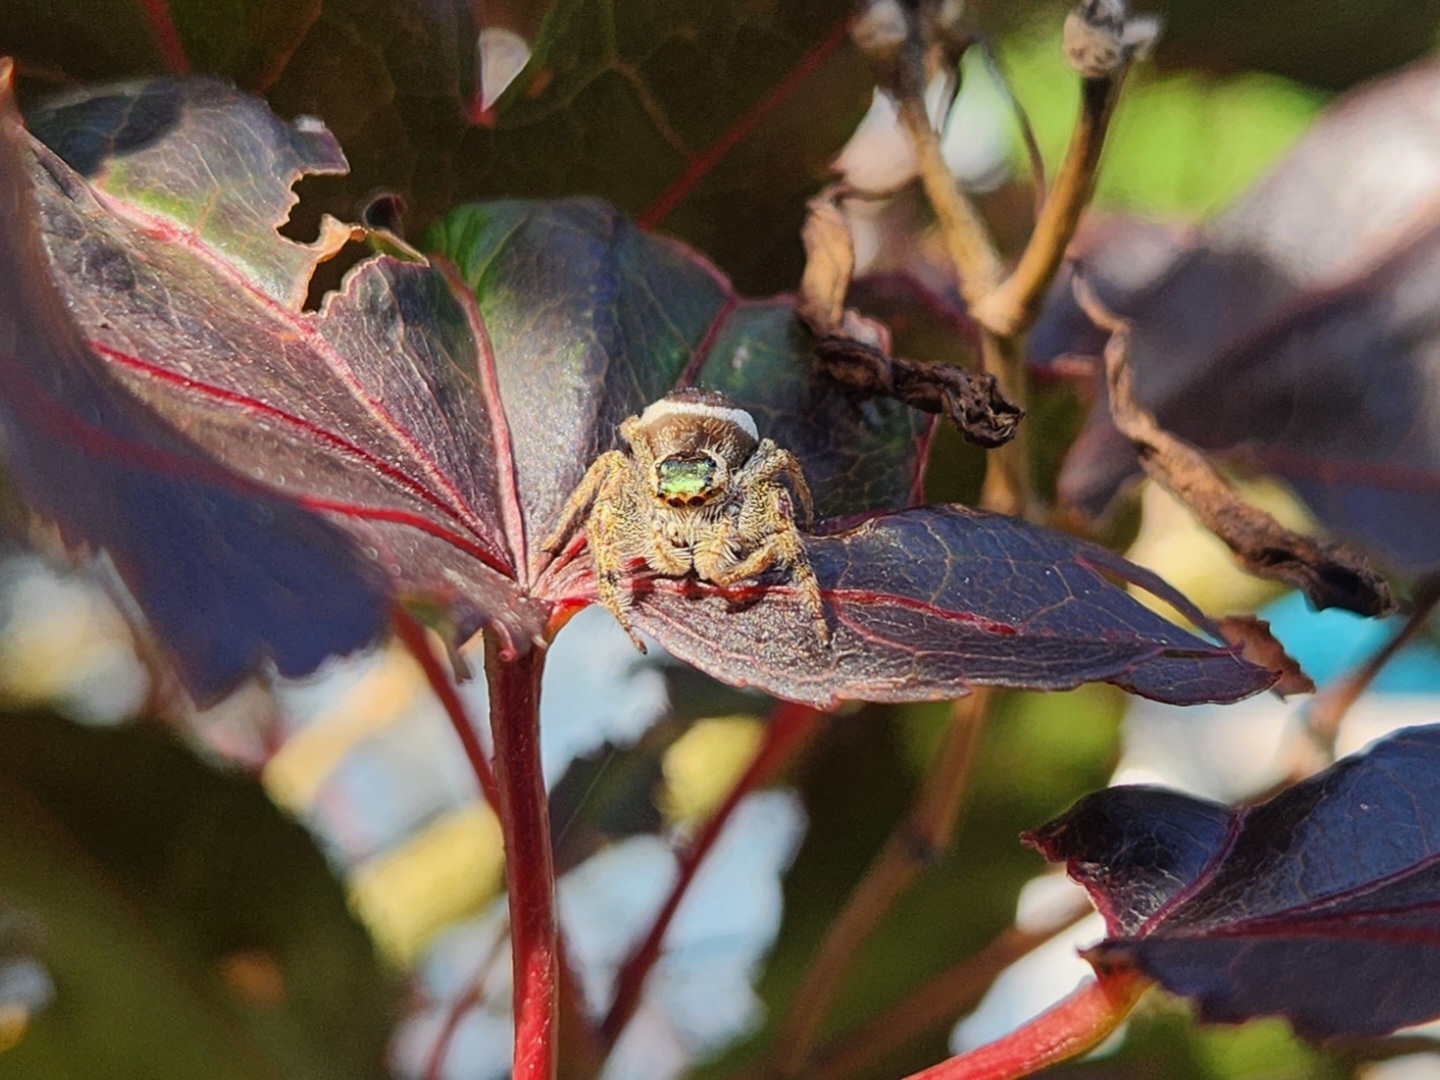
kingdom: Animalia
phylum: Arthropoda
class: Arachnida
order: Araneae
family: Salticidae
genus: Paraphidippus
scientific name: Paraphidippus aurantius
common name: Jumping spiders
